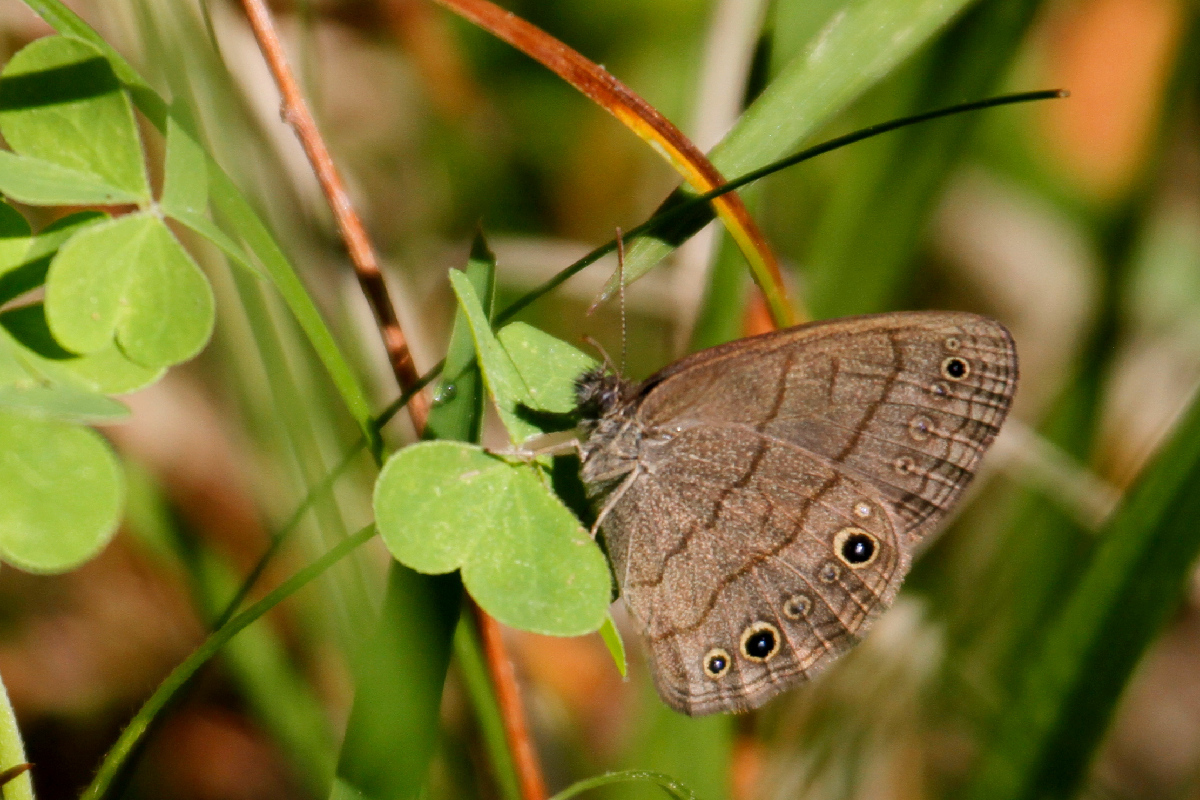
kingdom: Animalia
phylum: Arthropoda
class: Insecta
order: Lepidoptera
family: Nymphalidae
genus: Hermeuptychia
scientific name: Hermeuptychia hermes
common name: Hermes satyr
